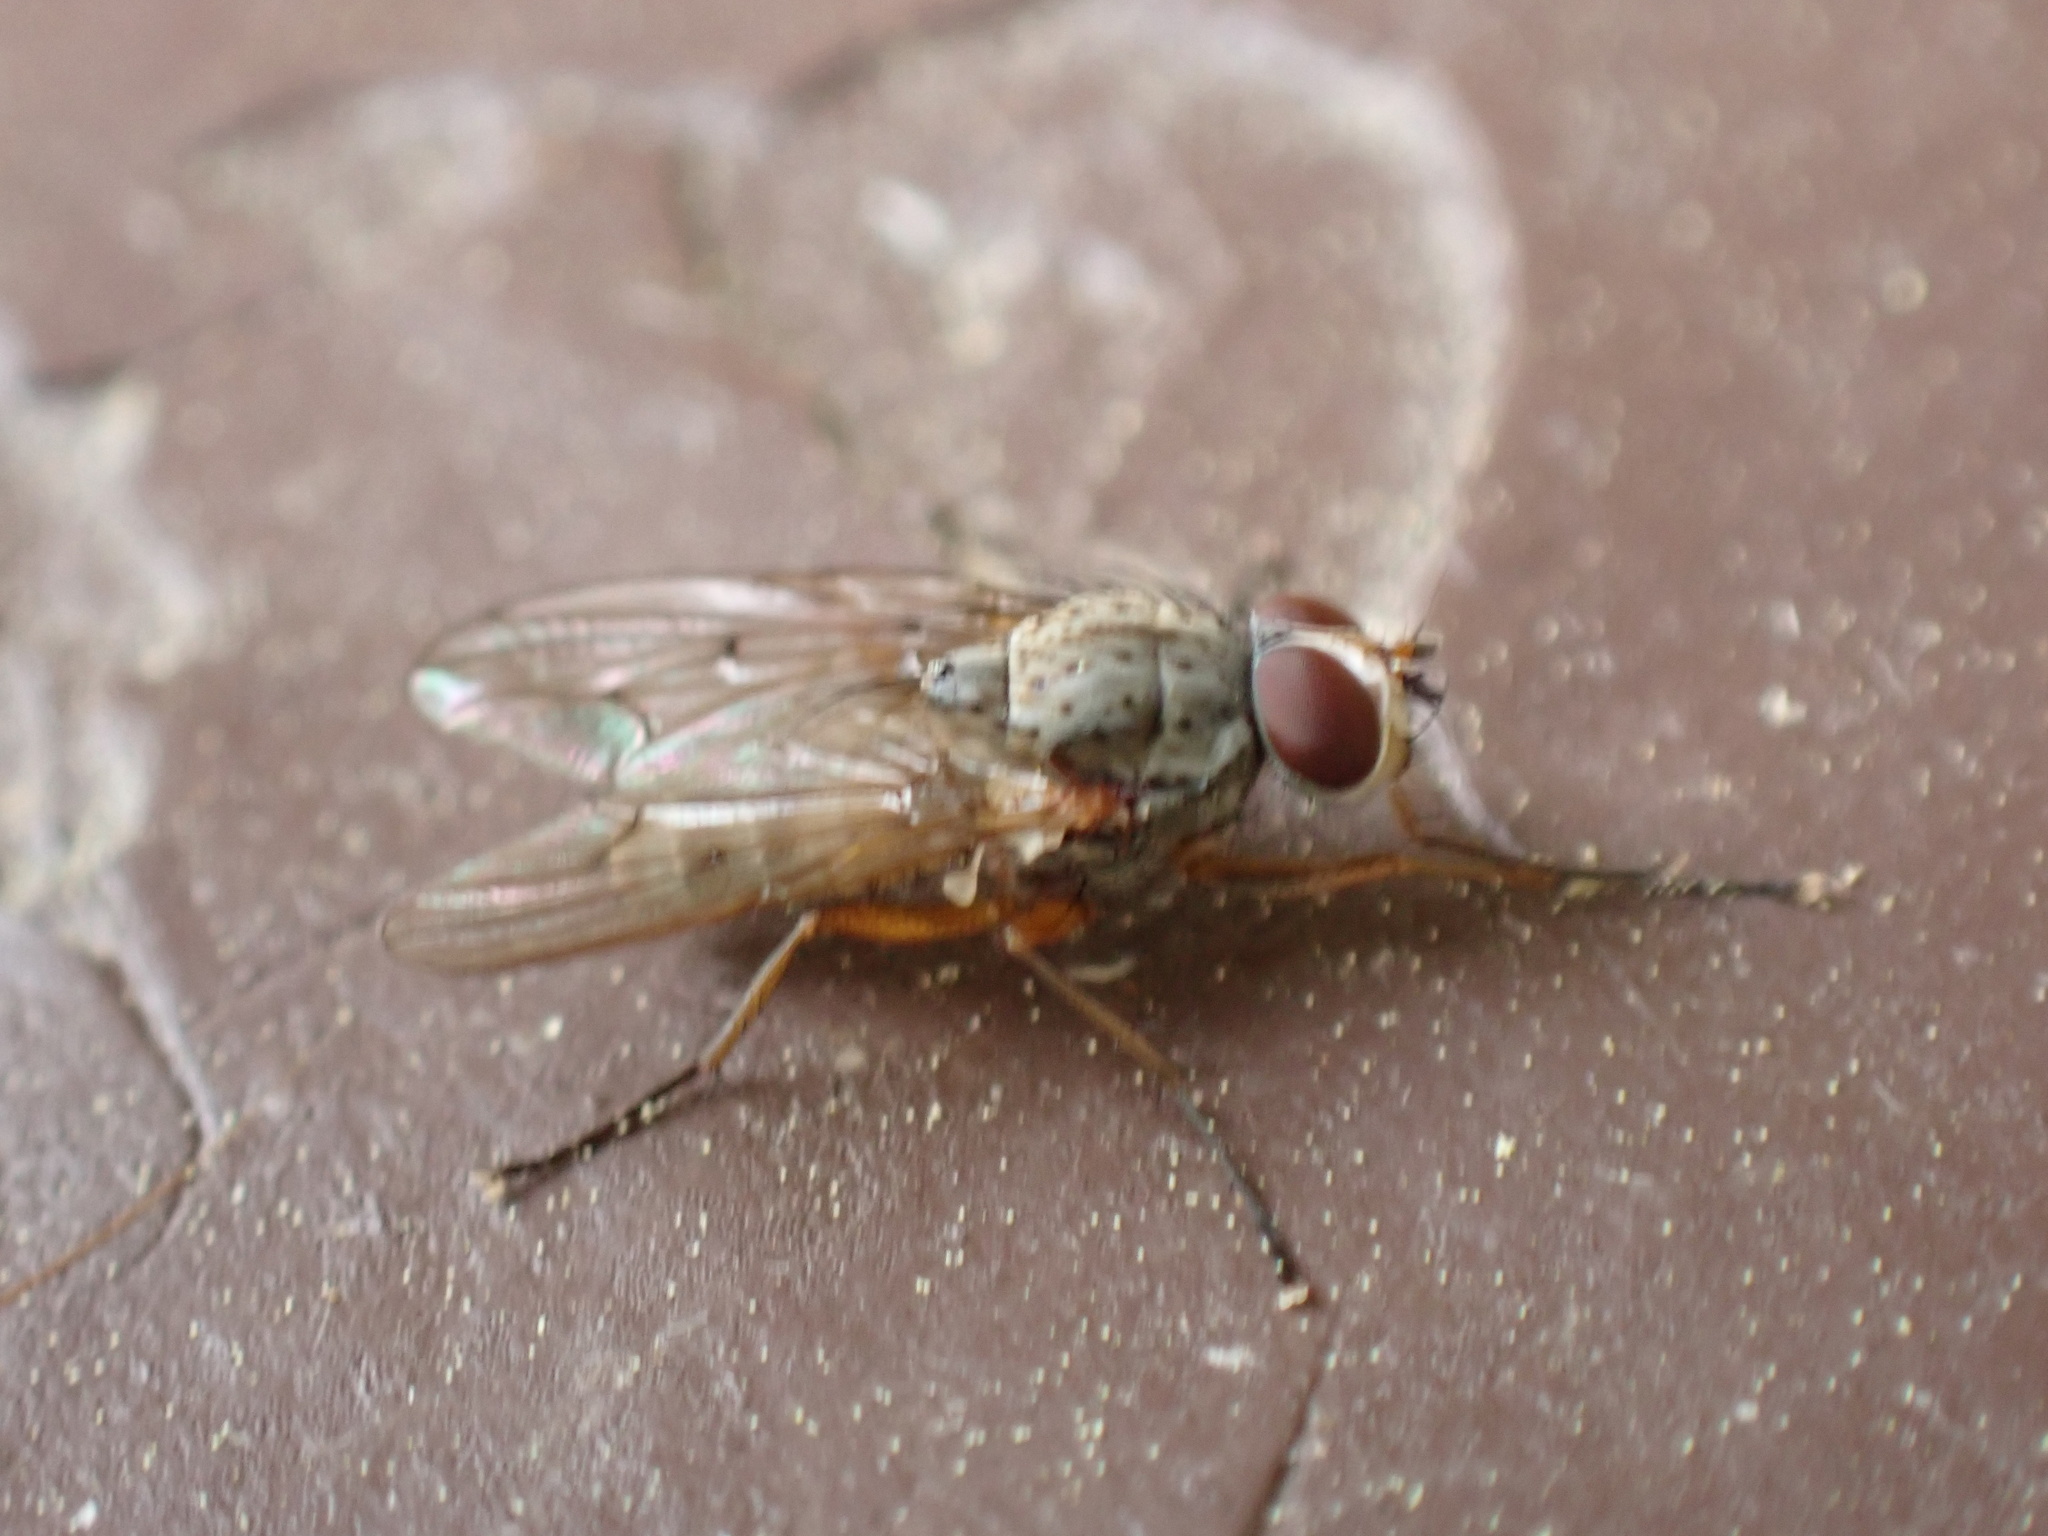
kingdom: Animalia
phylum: Arthropoda
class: Insecta
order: Diptera
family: Anthomyiidae
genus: Eutrichota
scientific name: Eutrichota affinis
